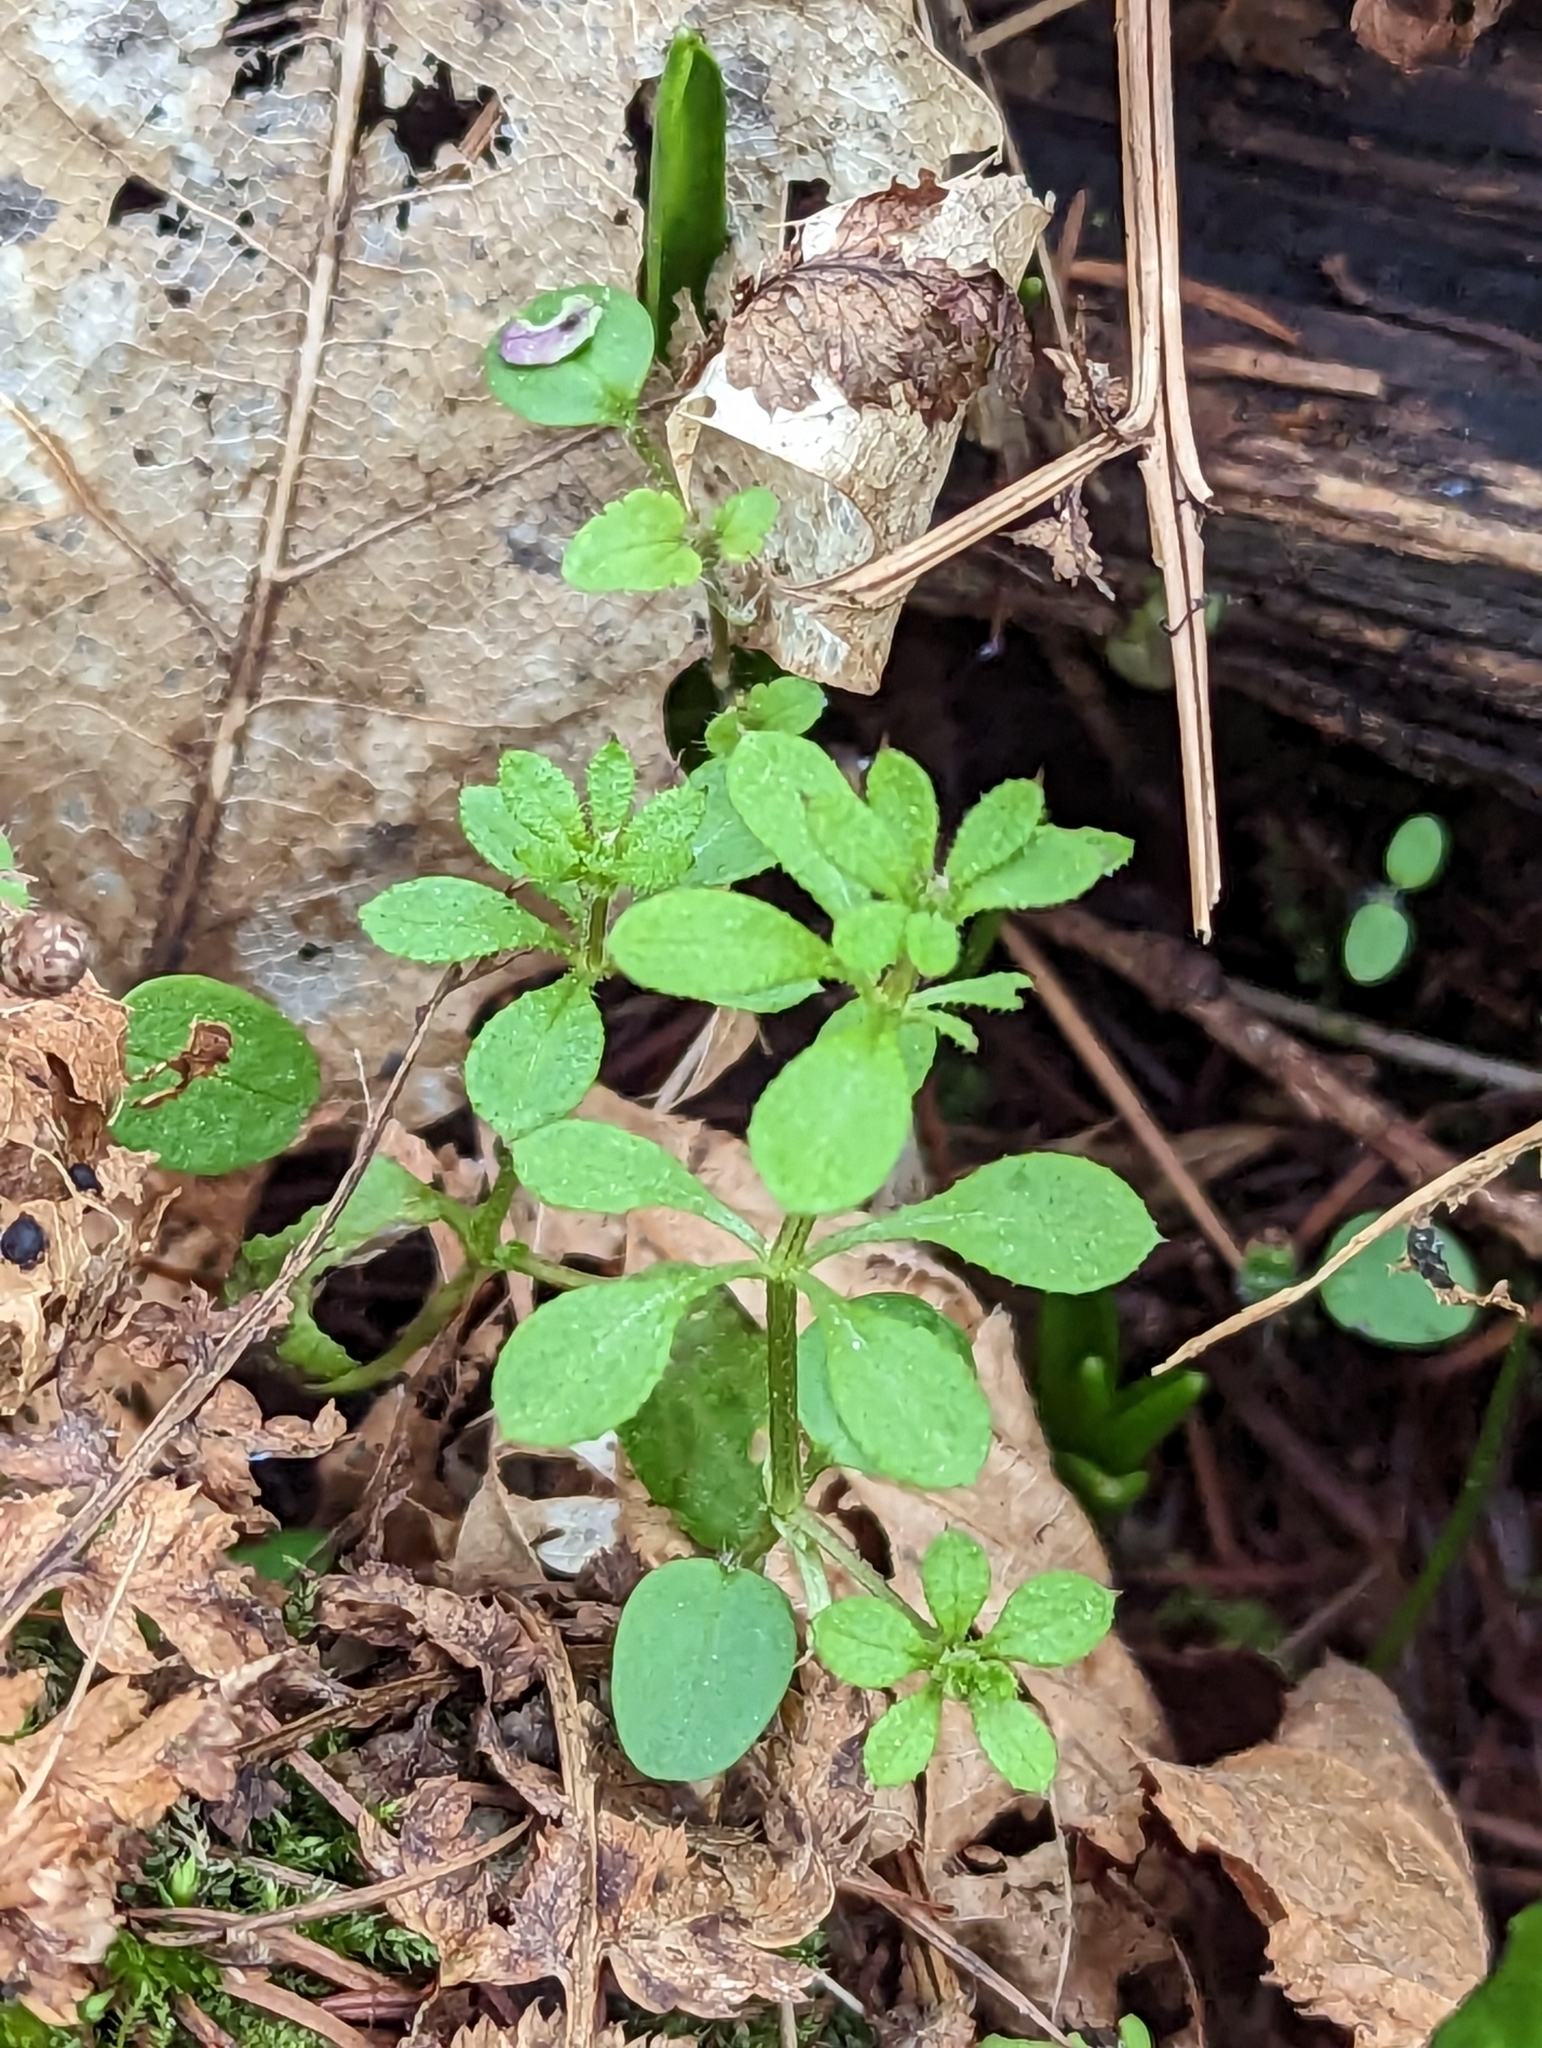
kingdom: Plantae
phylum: Tracheophyta
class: Magnoliopsida
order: Gentianales
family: Rubiaceae
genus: Galium
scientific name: Galium aparine
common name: Cleavers
